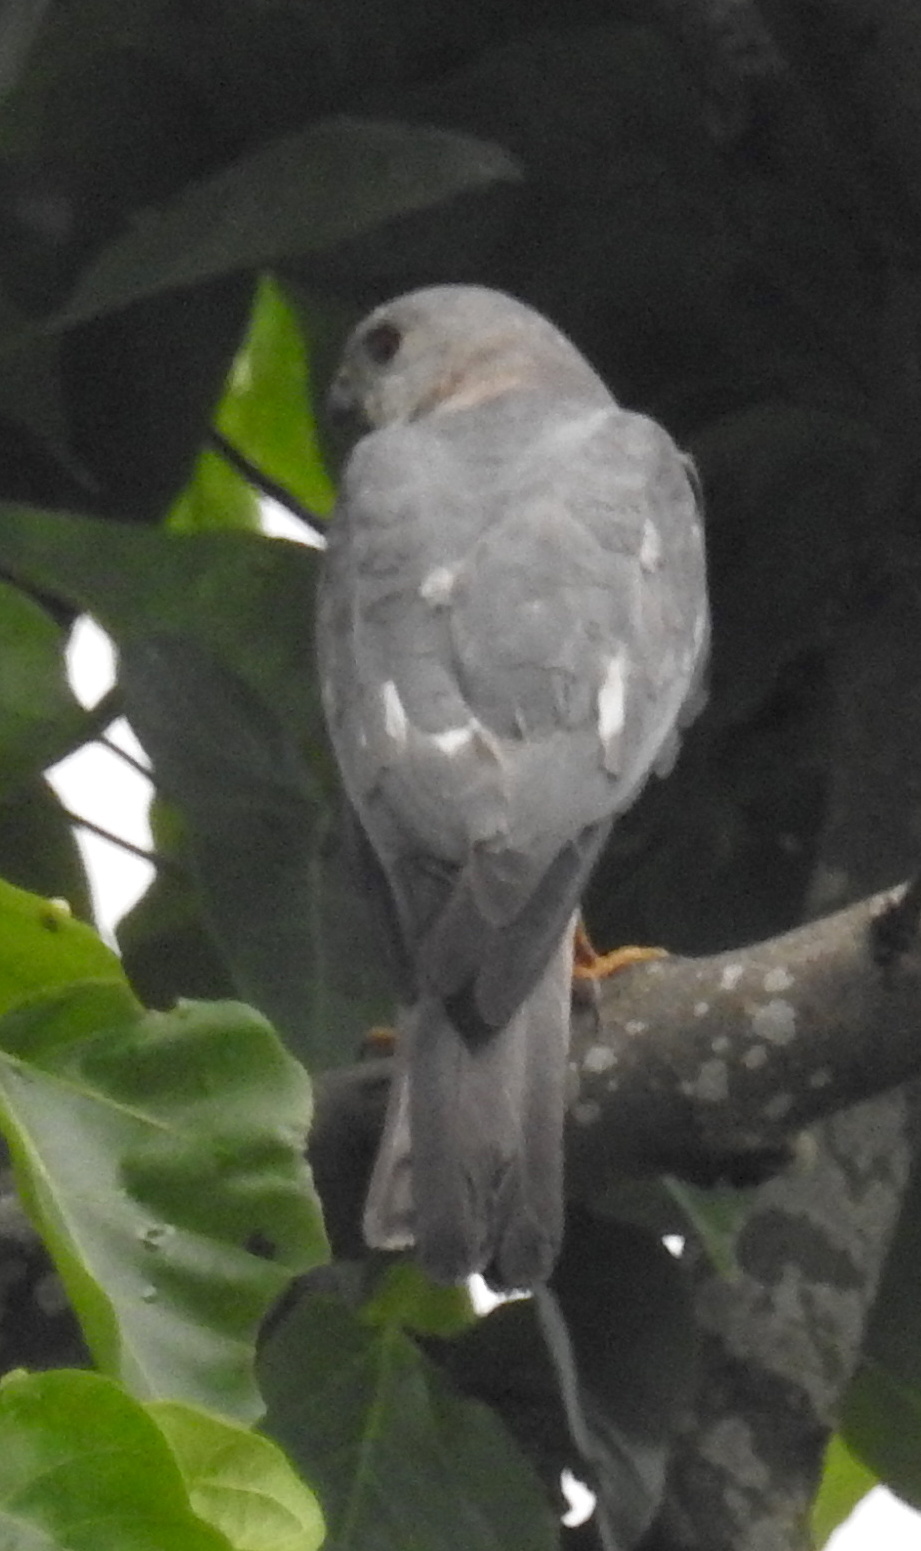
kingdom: Animalia
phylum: Chordata
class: Aves
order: Accipitriformes
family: Accipitridae
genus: Accipiter
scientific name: Accipiter badius
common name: Shikra
